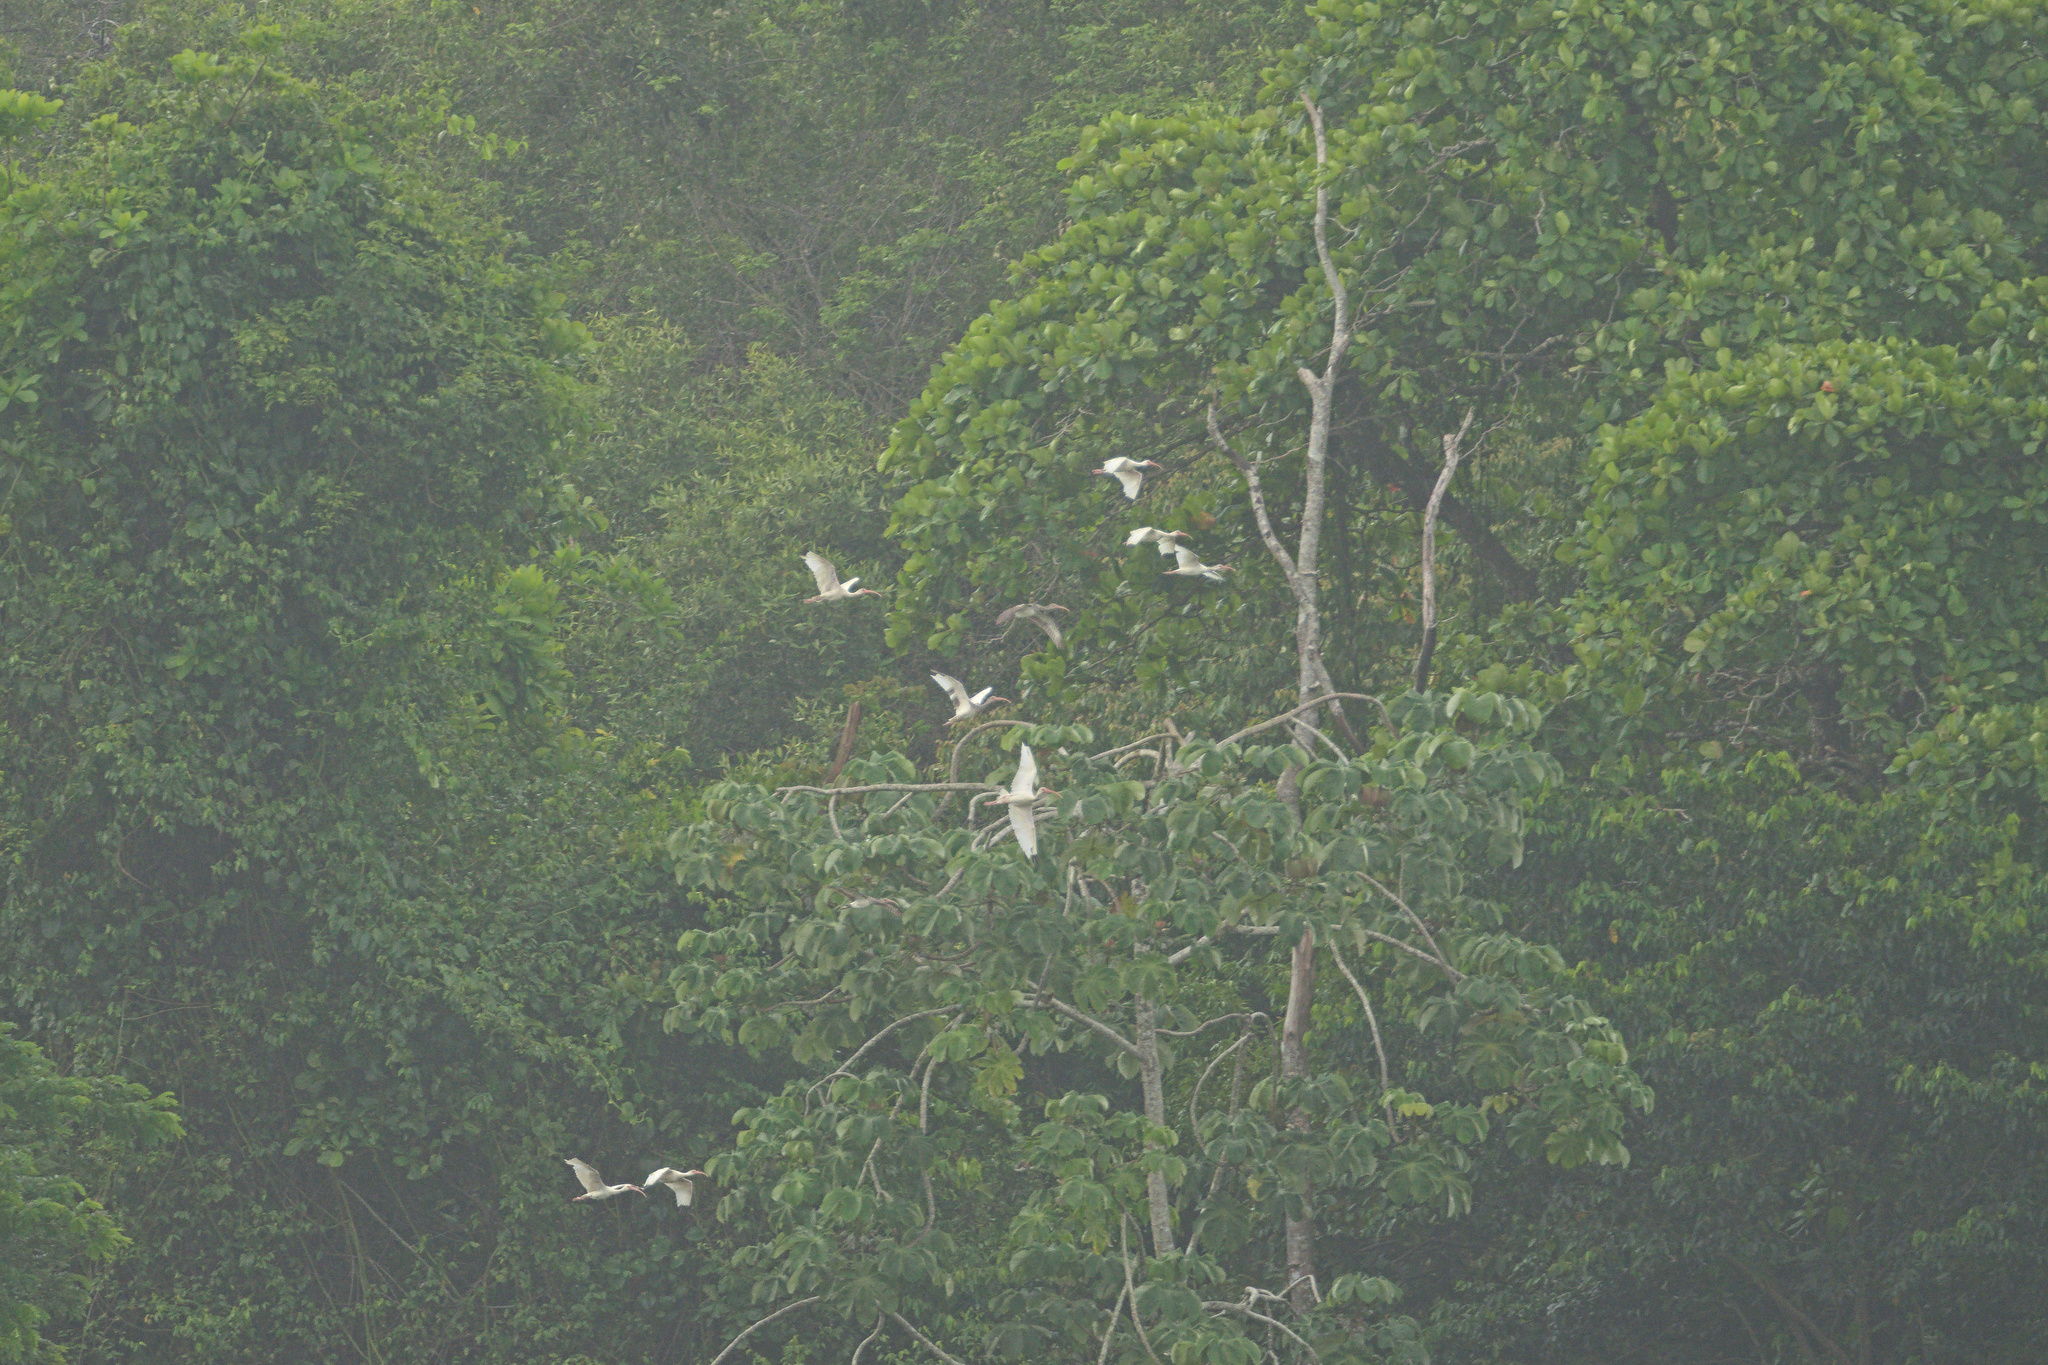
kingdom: Animalia
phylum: Chordata
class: Aves
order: Pelecaniformes
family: Threskiornithidae
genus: Eudocimus
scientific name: Eudocimus albus
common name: White ibis
